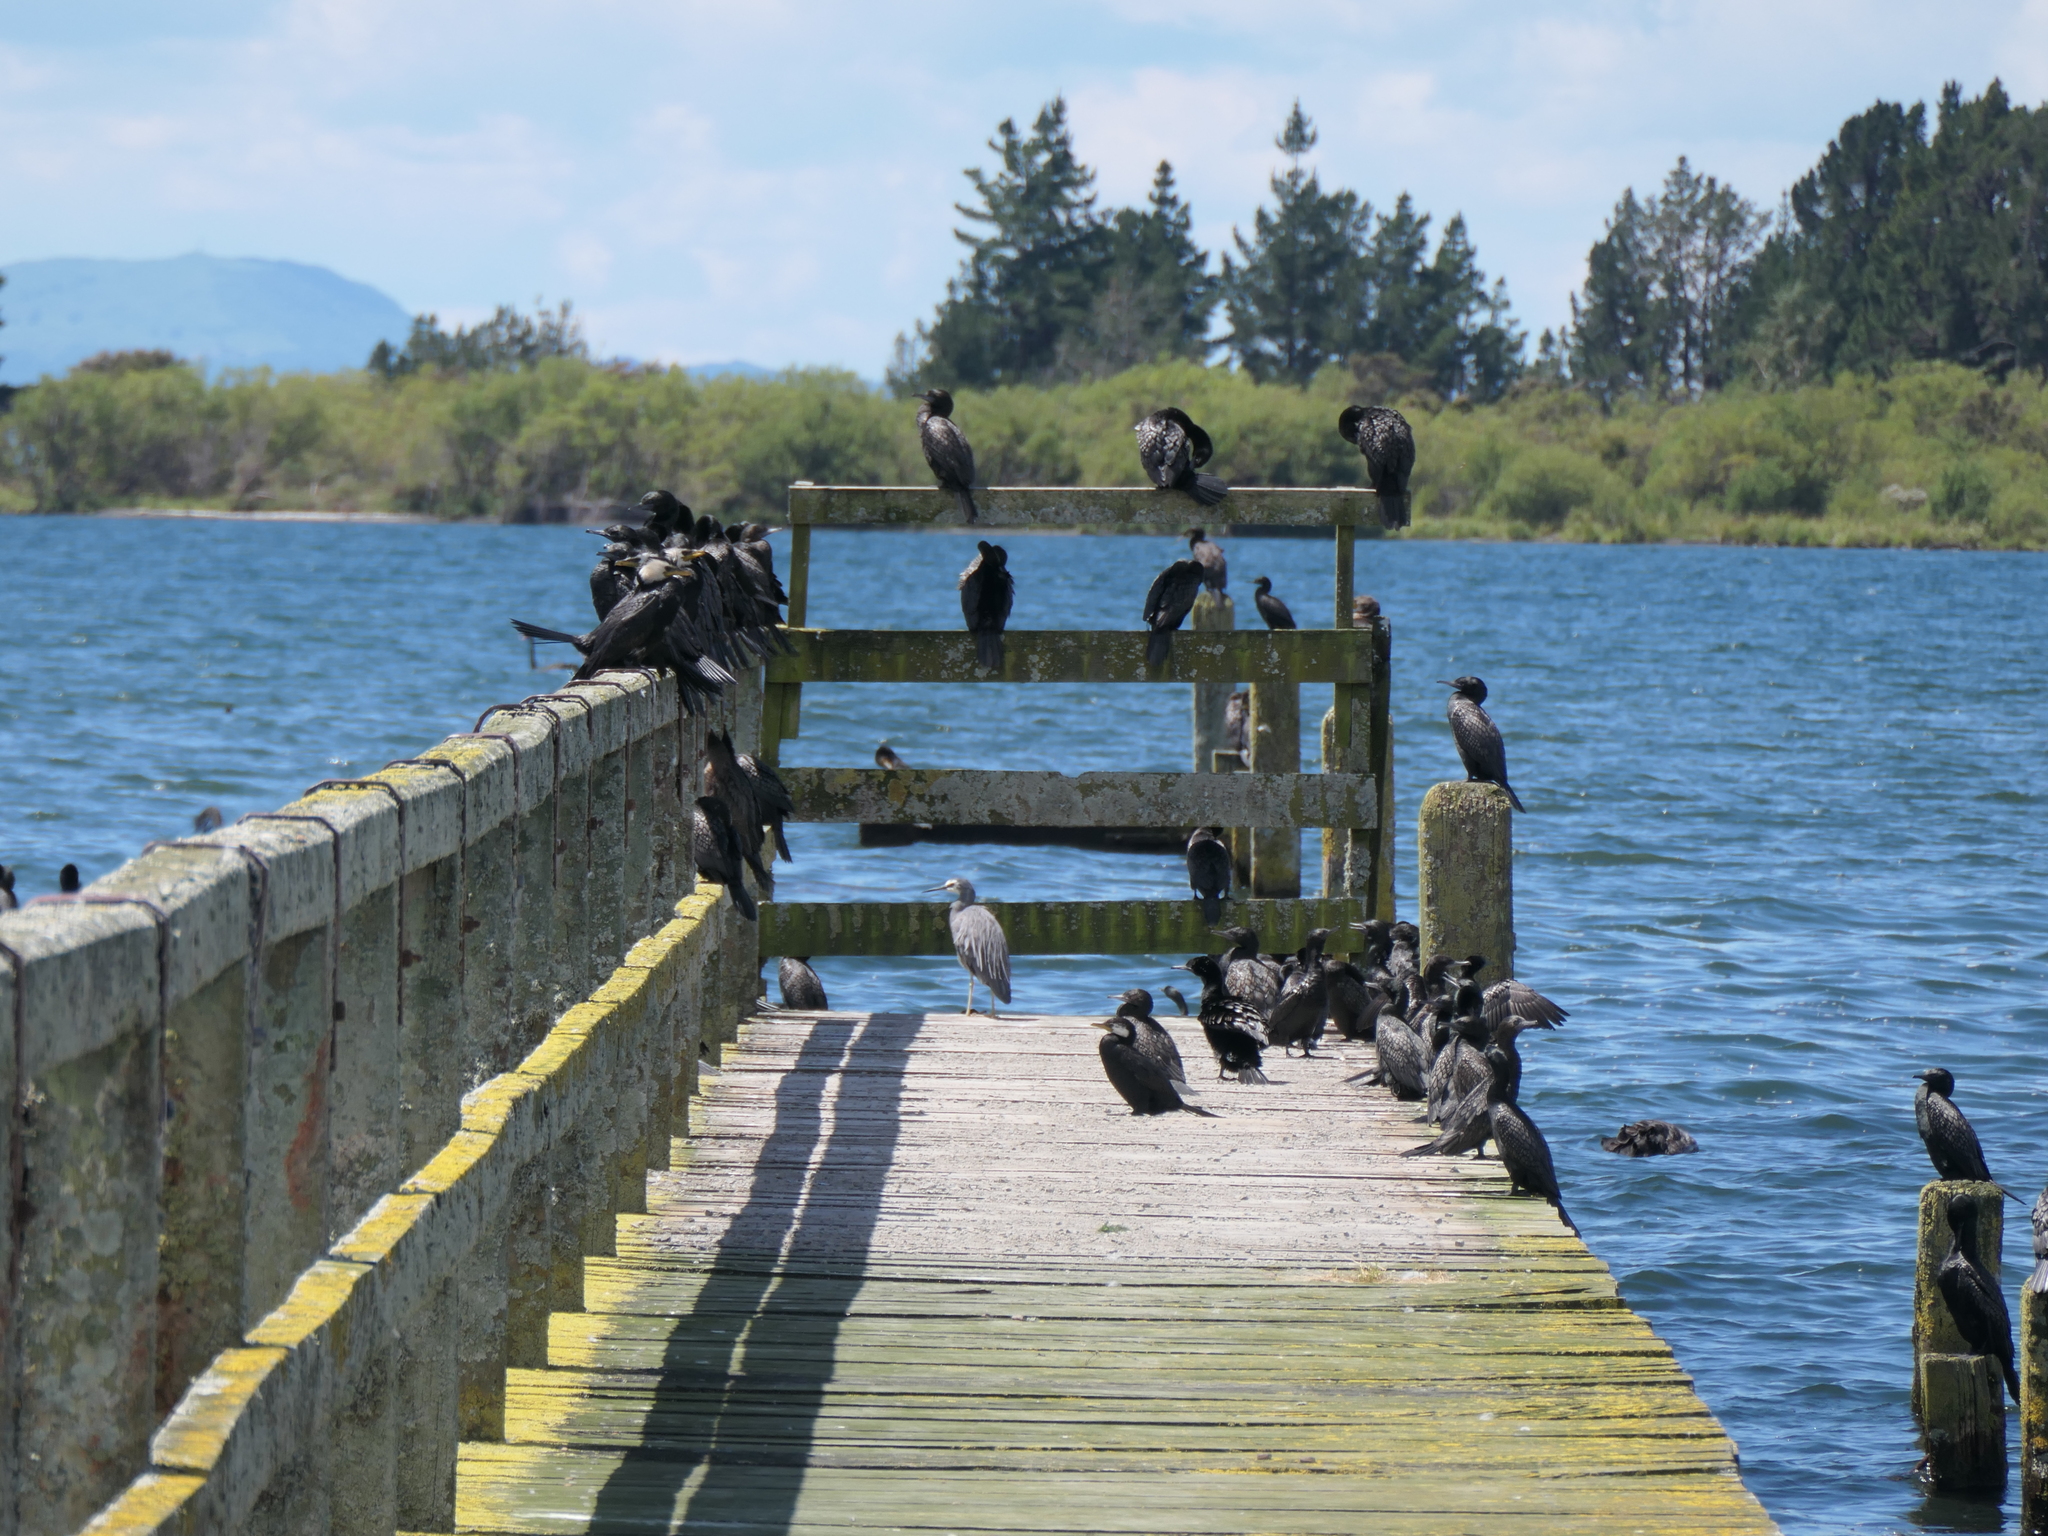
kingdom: Animalia
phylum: Chordata
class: Aves
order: Pelecaniformes
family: Ardeidae
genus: Egretta
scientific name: Egretta novaehollandiae
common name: White-faced heron
